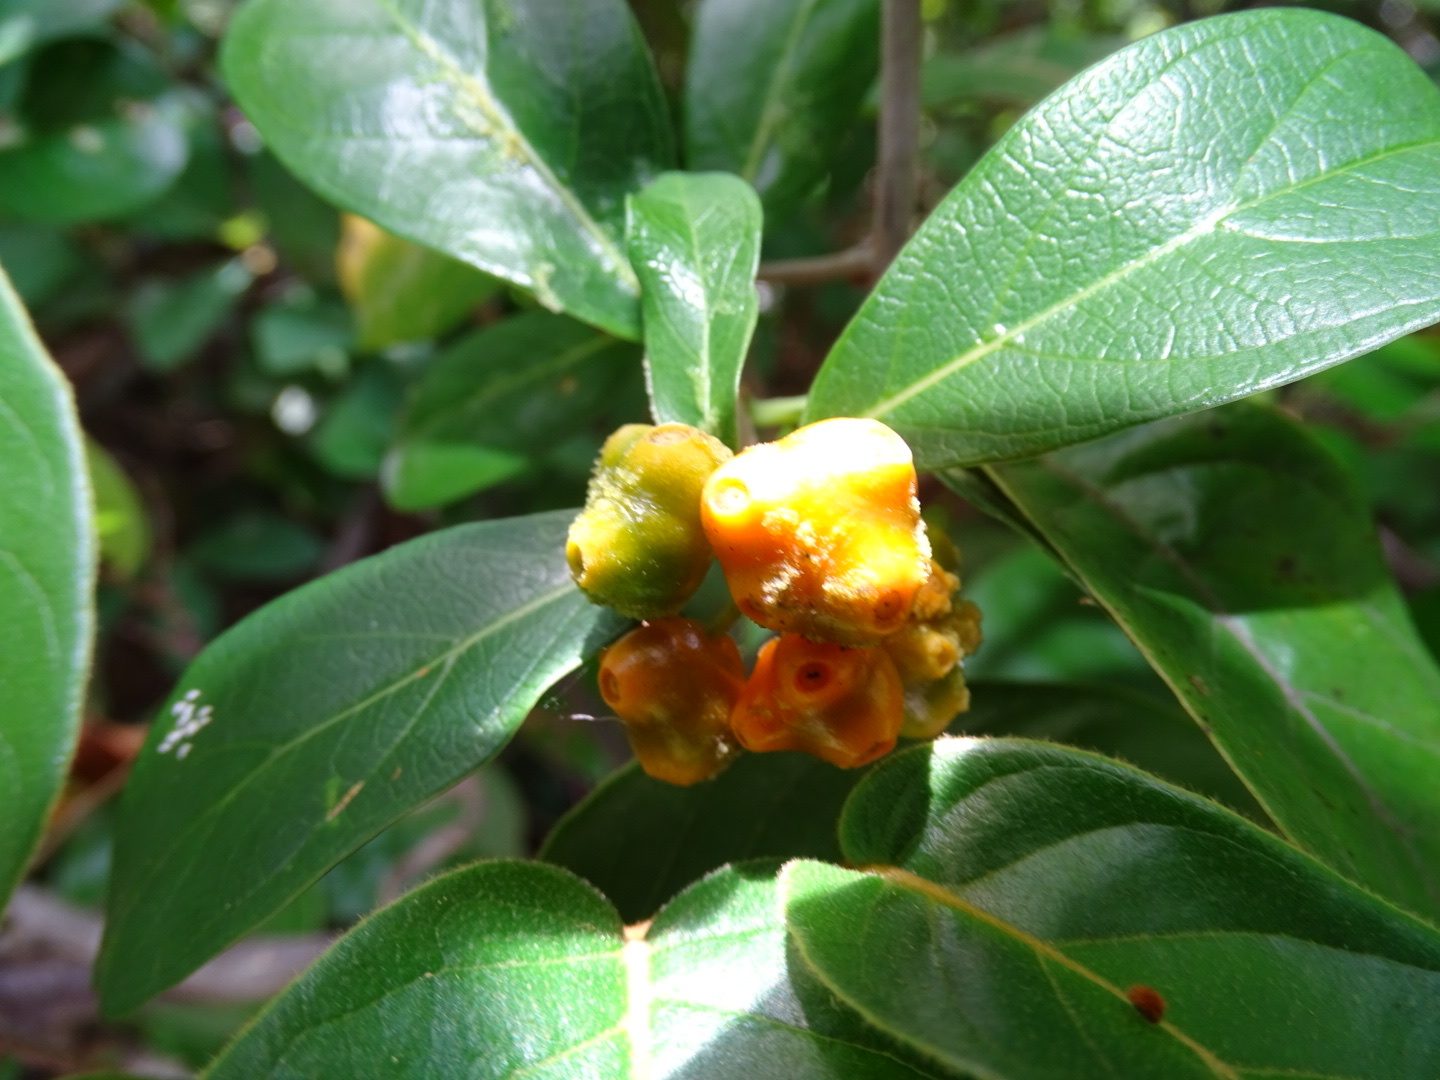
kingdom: Plantae
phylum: Tracheophyta
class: Magnoliopsida
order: Gentianales
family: Rubiaceae
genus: Gynochthodes
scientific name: Gynochthodes parvifolia
